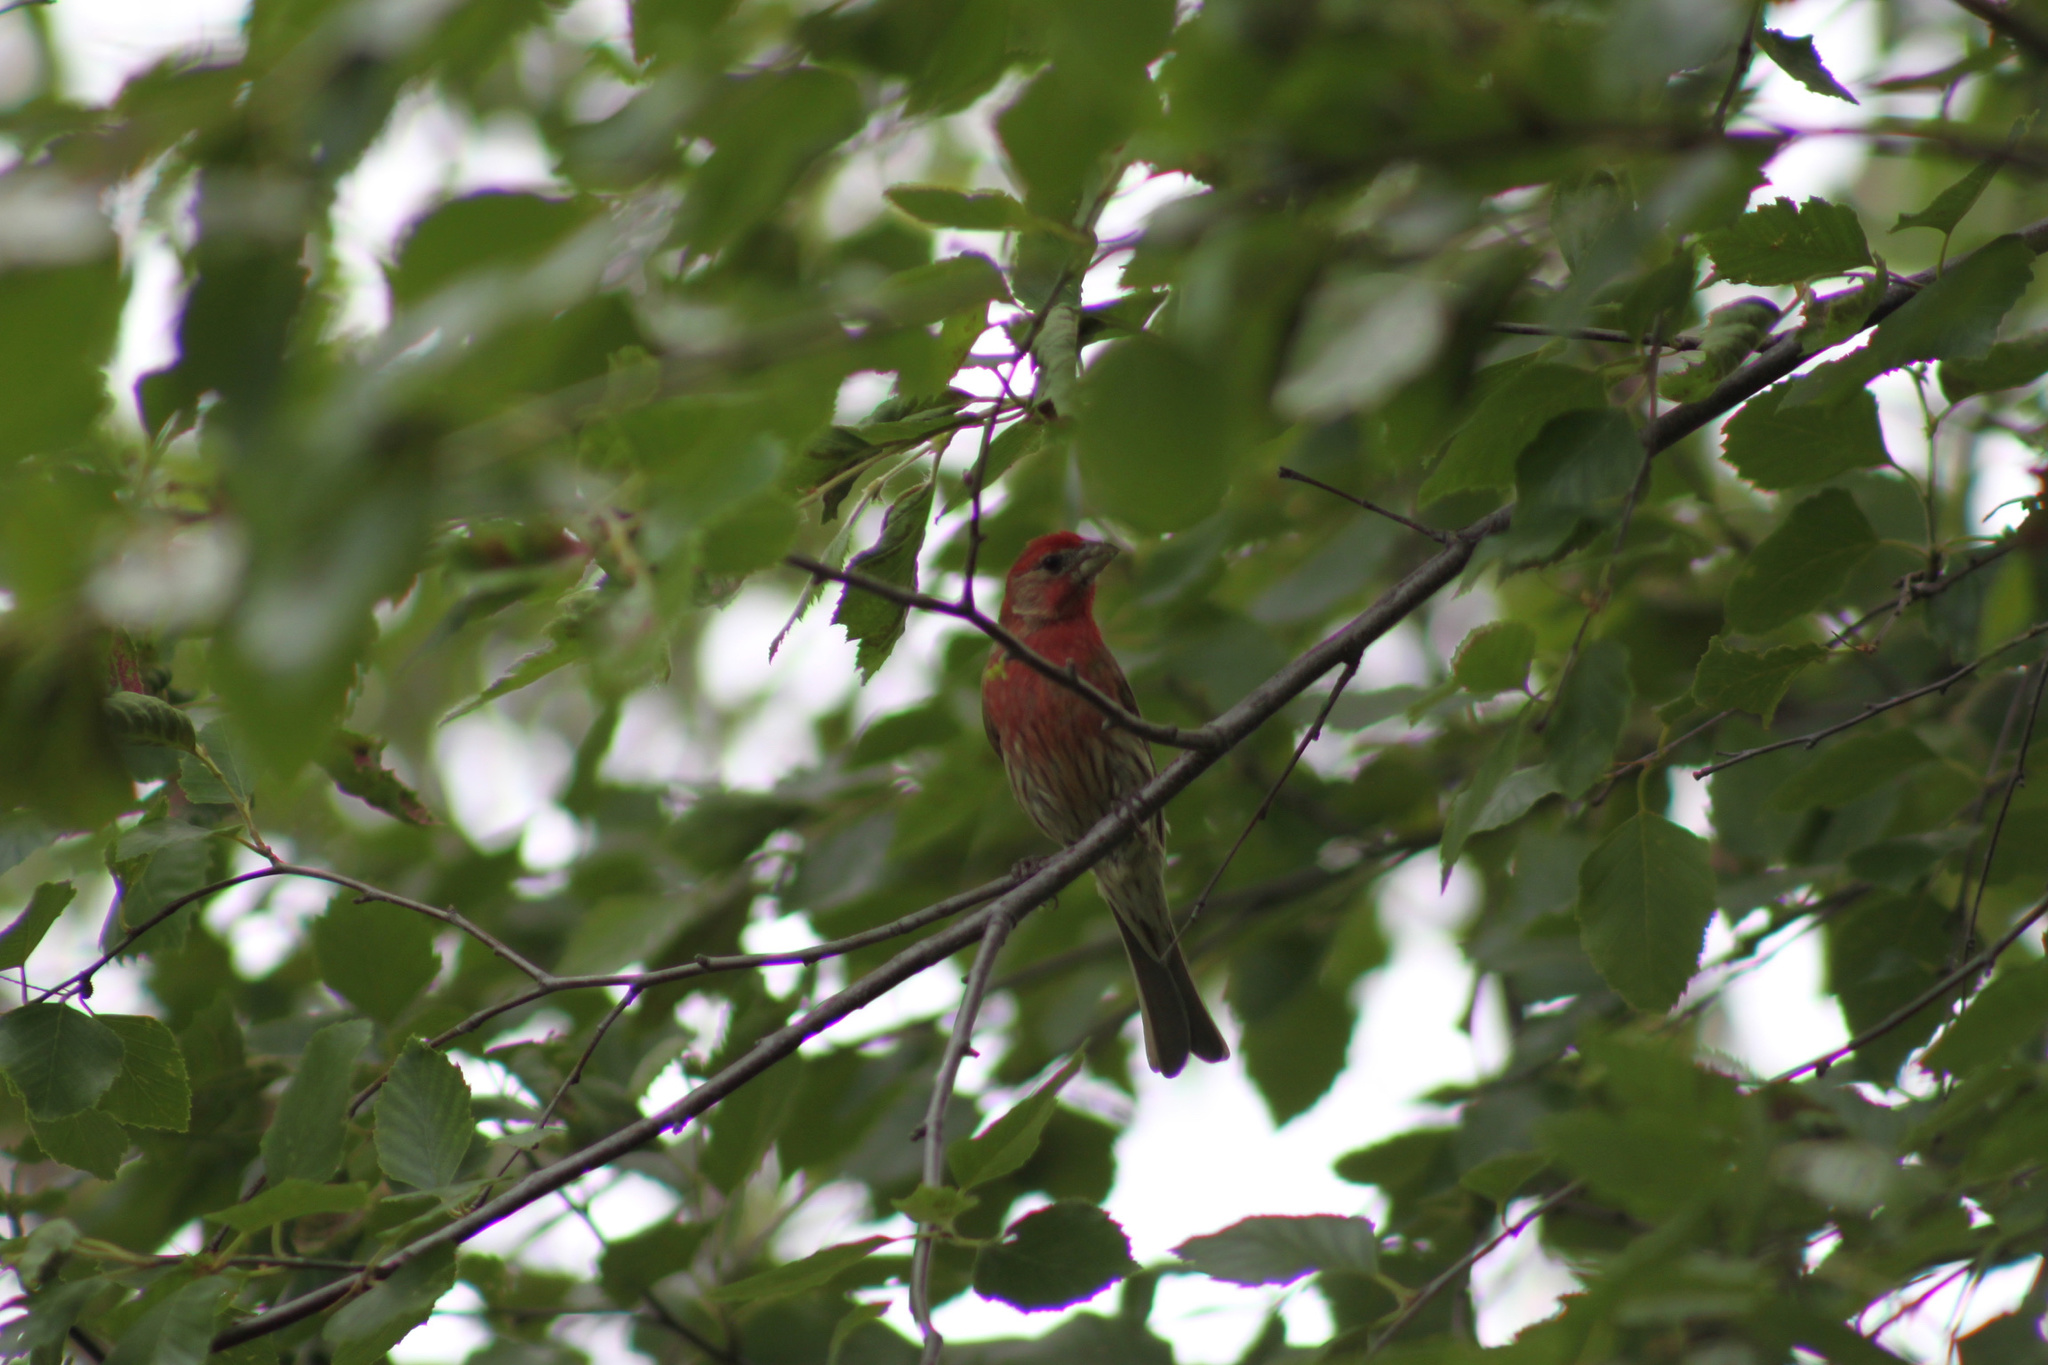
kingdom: Animalia
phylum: Chordata
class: Aves
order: Passeriformes
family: Fringillidae
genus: Haemorhous
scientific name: Haemorhous mexicanus
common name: House finch
